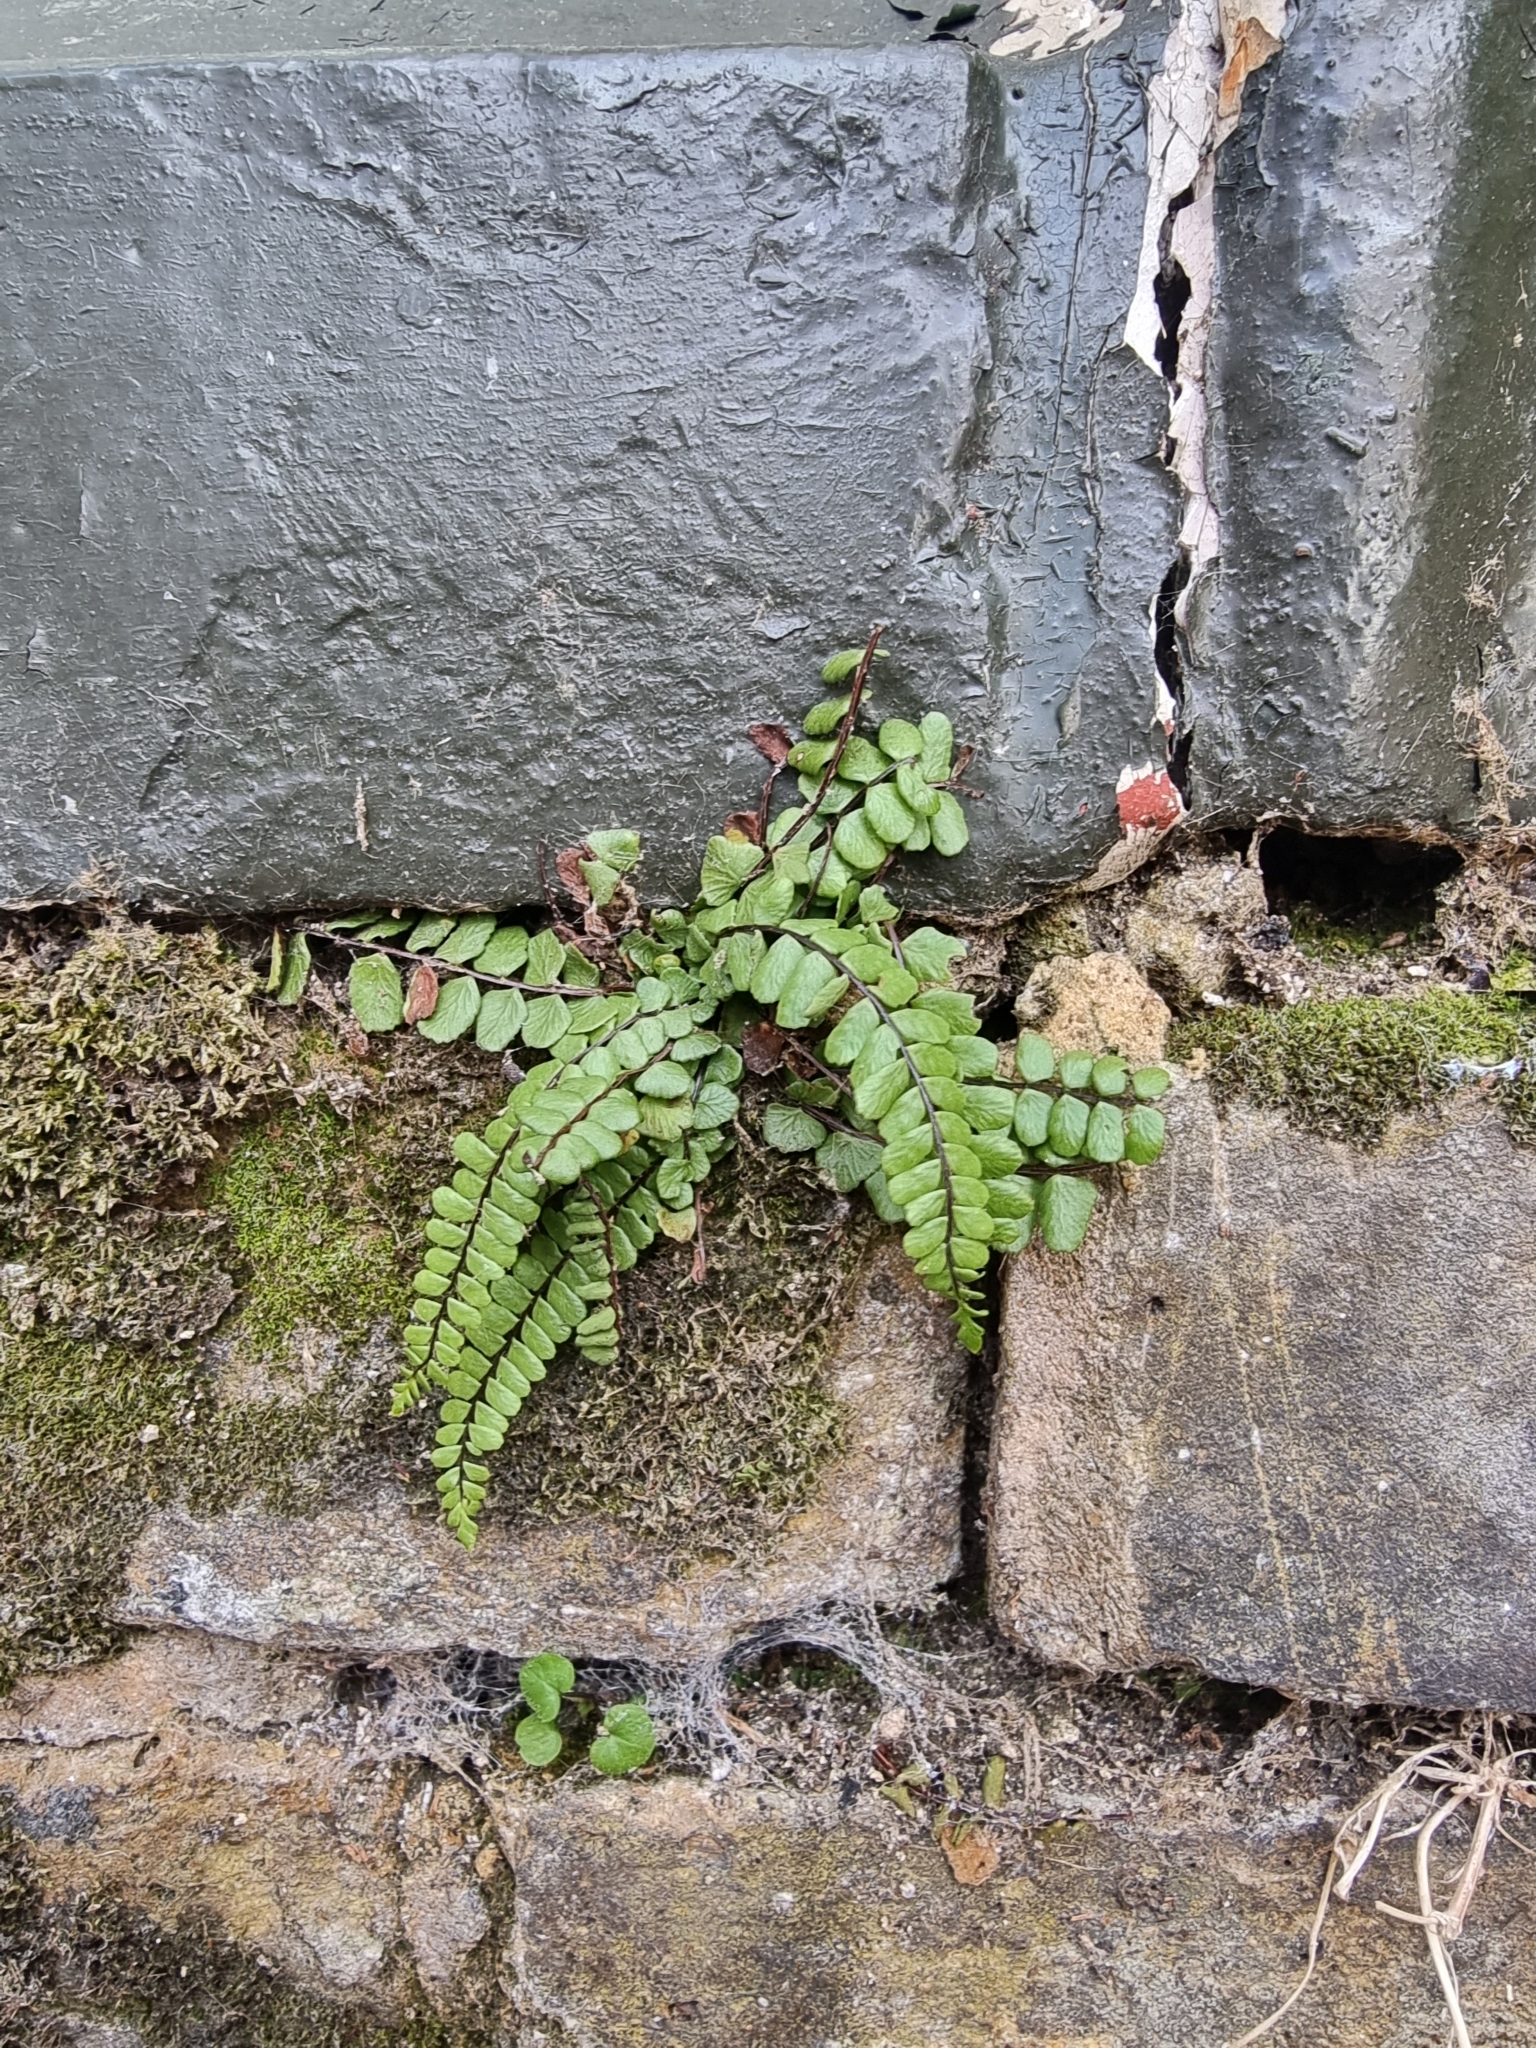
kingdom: Plantae
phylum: Tracheophyta
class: Polypodiopsida
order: Polypodiales
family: Aspleniaceae
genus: Asplenium
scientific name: Asplenium trichomanes
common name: Maidenhair spleenwort
